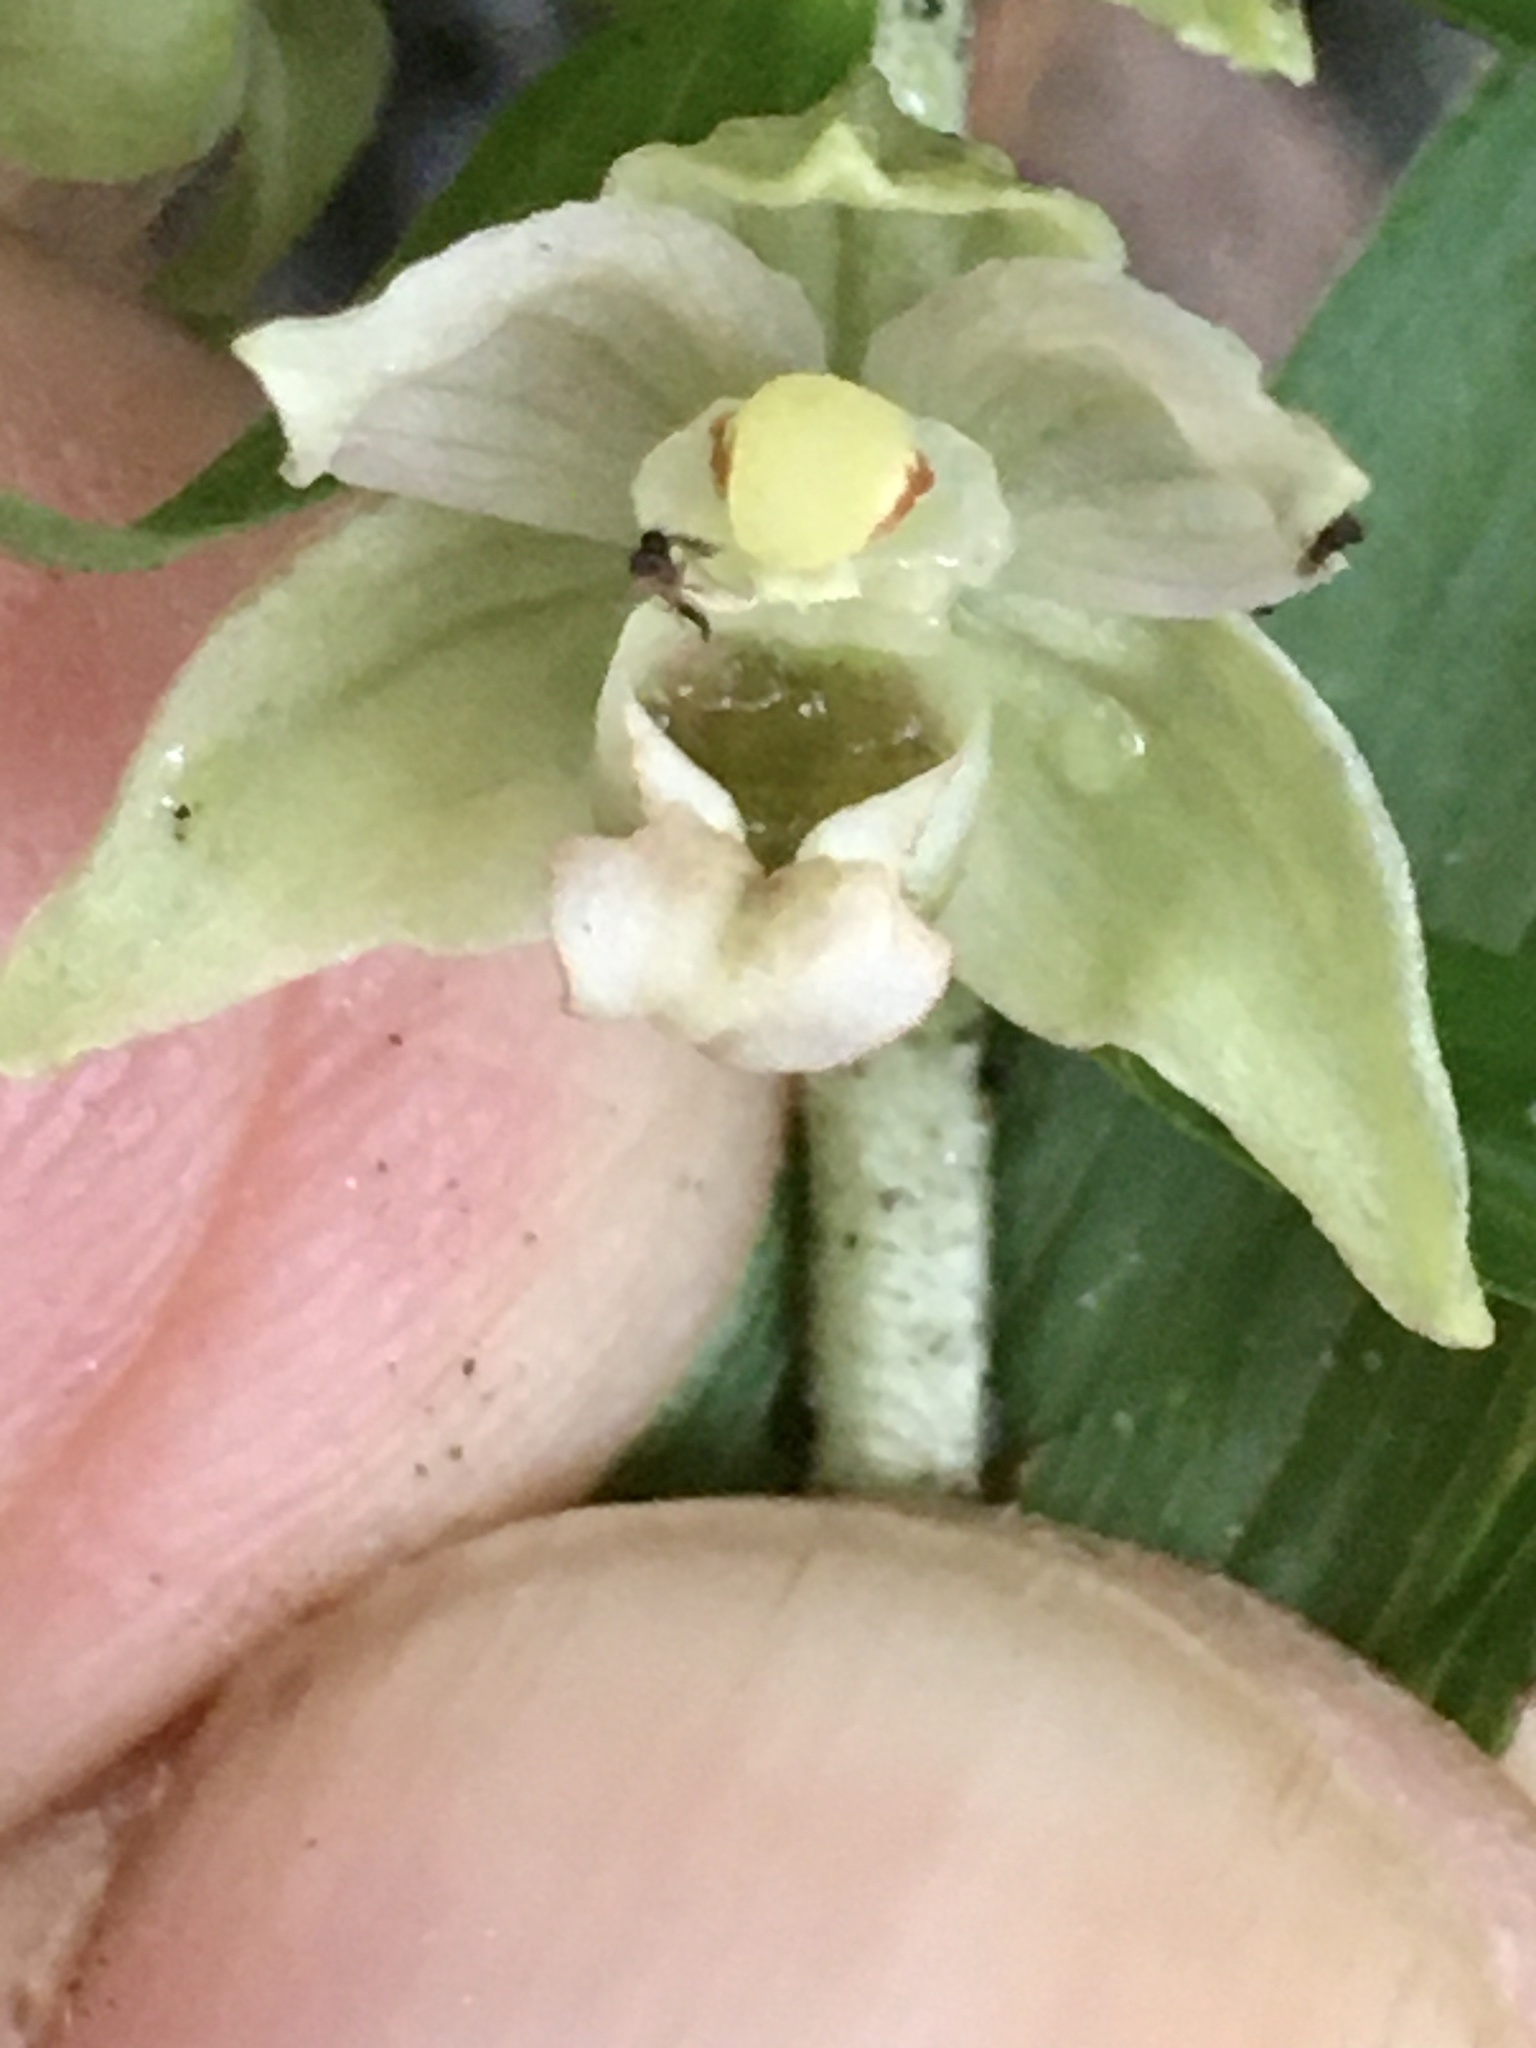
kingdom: Plantae
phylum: Tracheophyta
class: Liliopsida
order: Asparagales
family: Orchidaceae
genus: Epipactis
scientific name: Epipactis helleborine
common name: Broad-leaved helleborine
